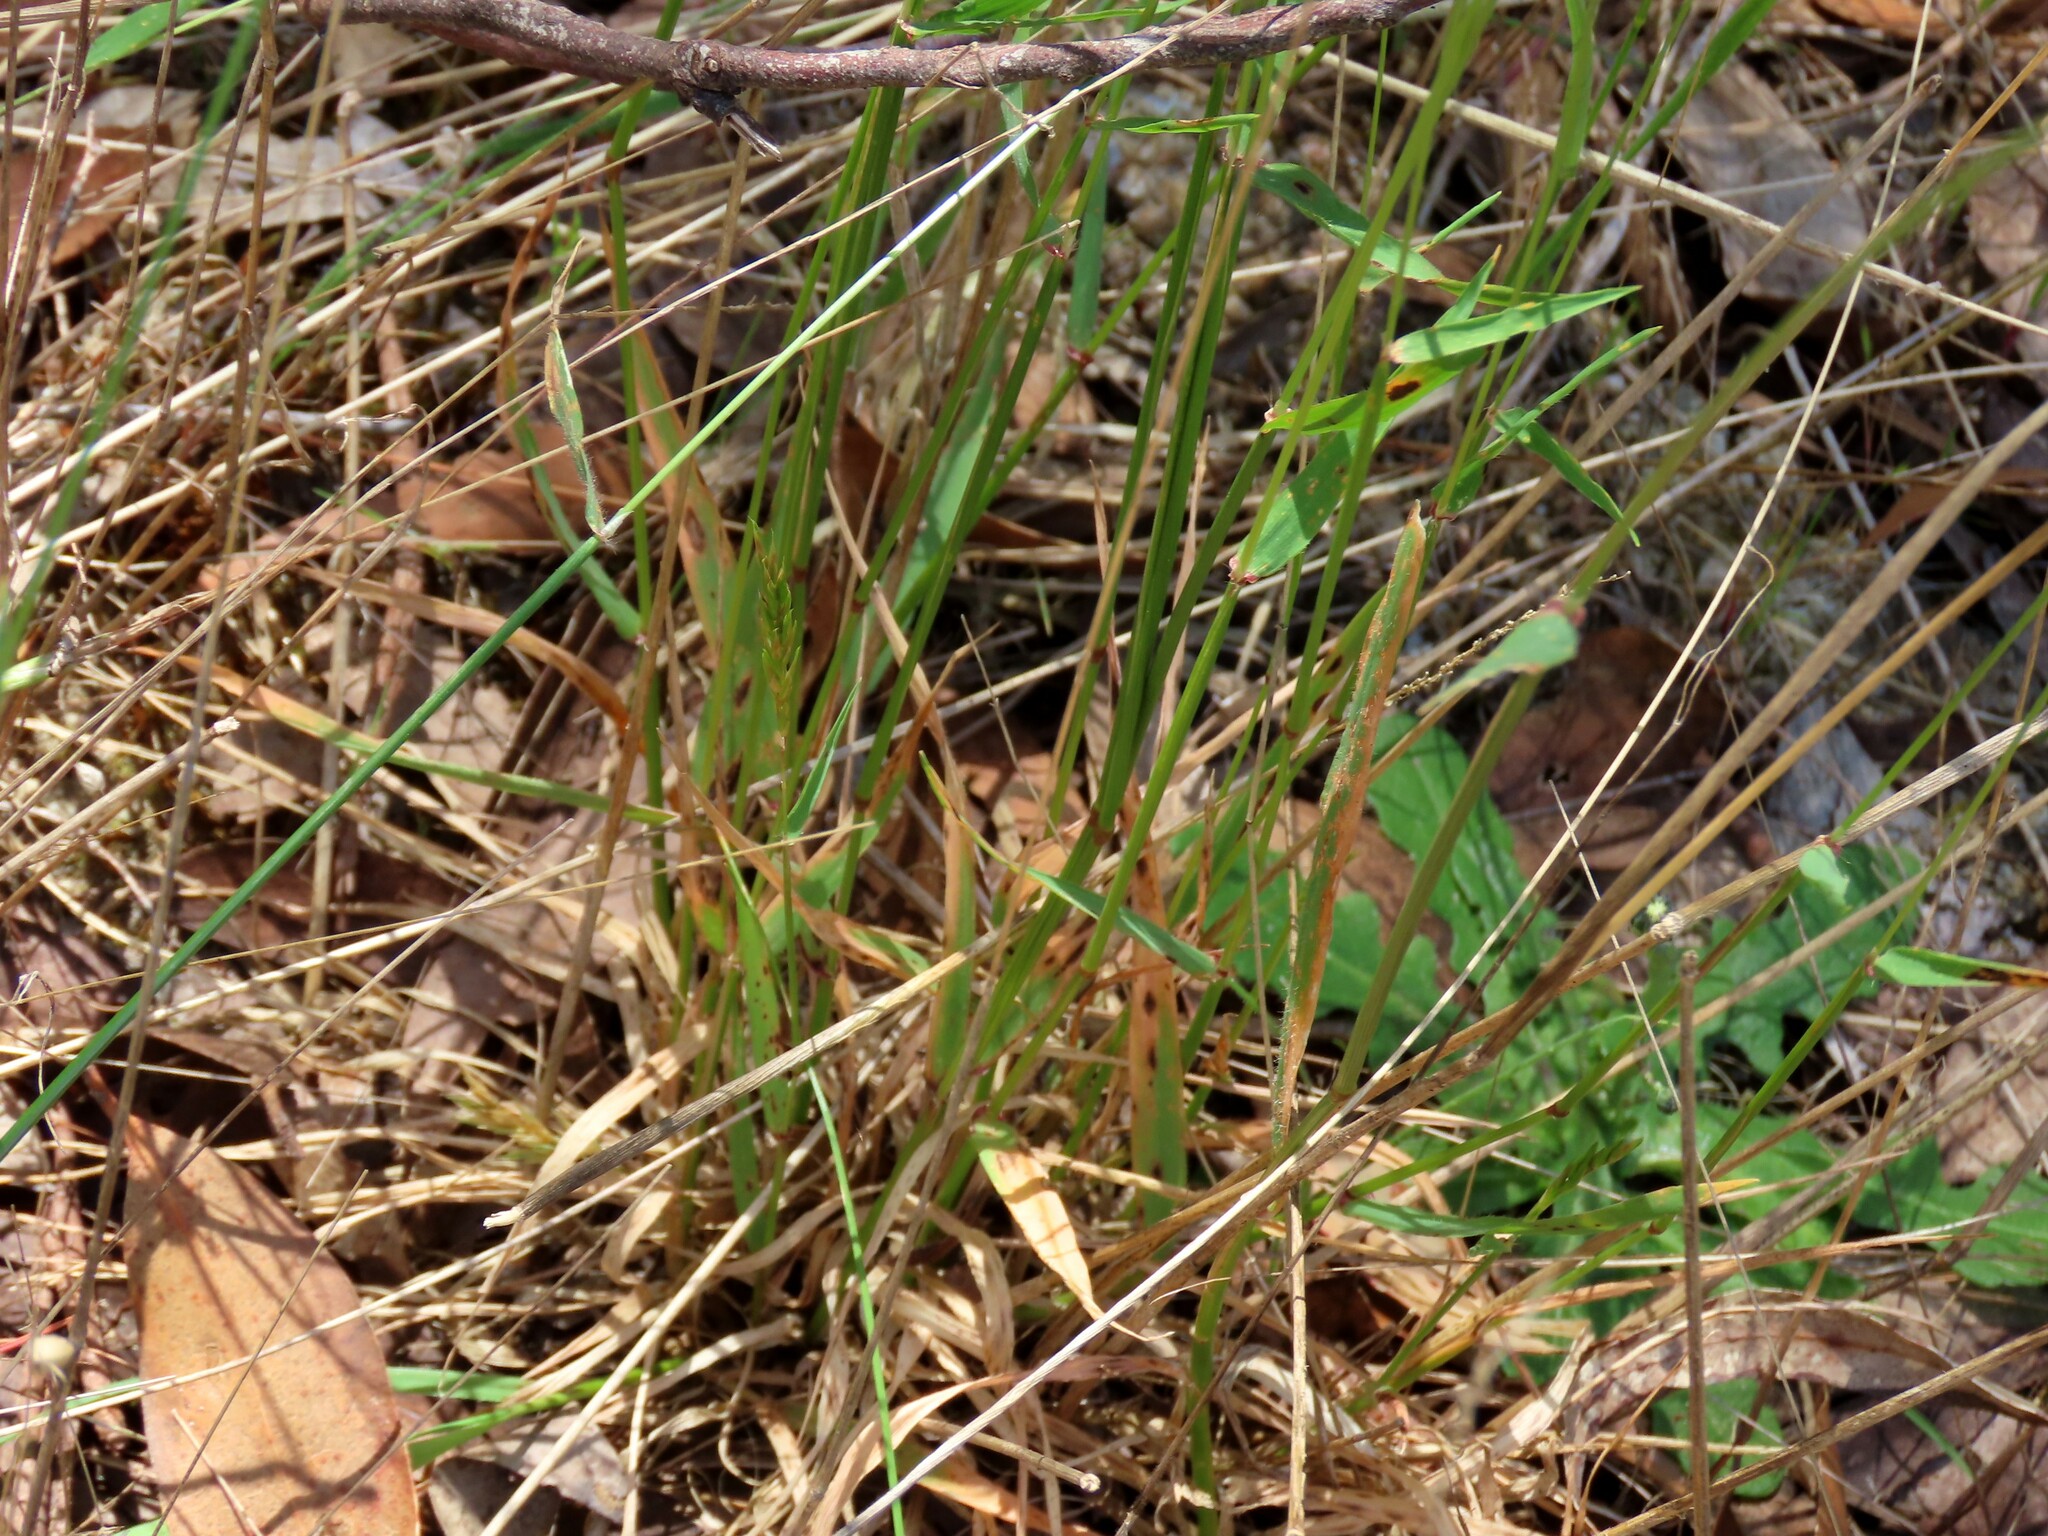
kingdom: Plantae
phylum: Tracheophyta
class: Liliopsida
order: Poales
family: Poaceae
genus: Anthoxanthum
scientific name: Anthoxanthum odoratum
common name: Sweet vernalgrass
